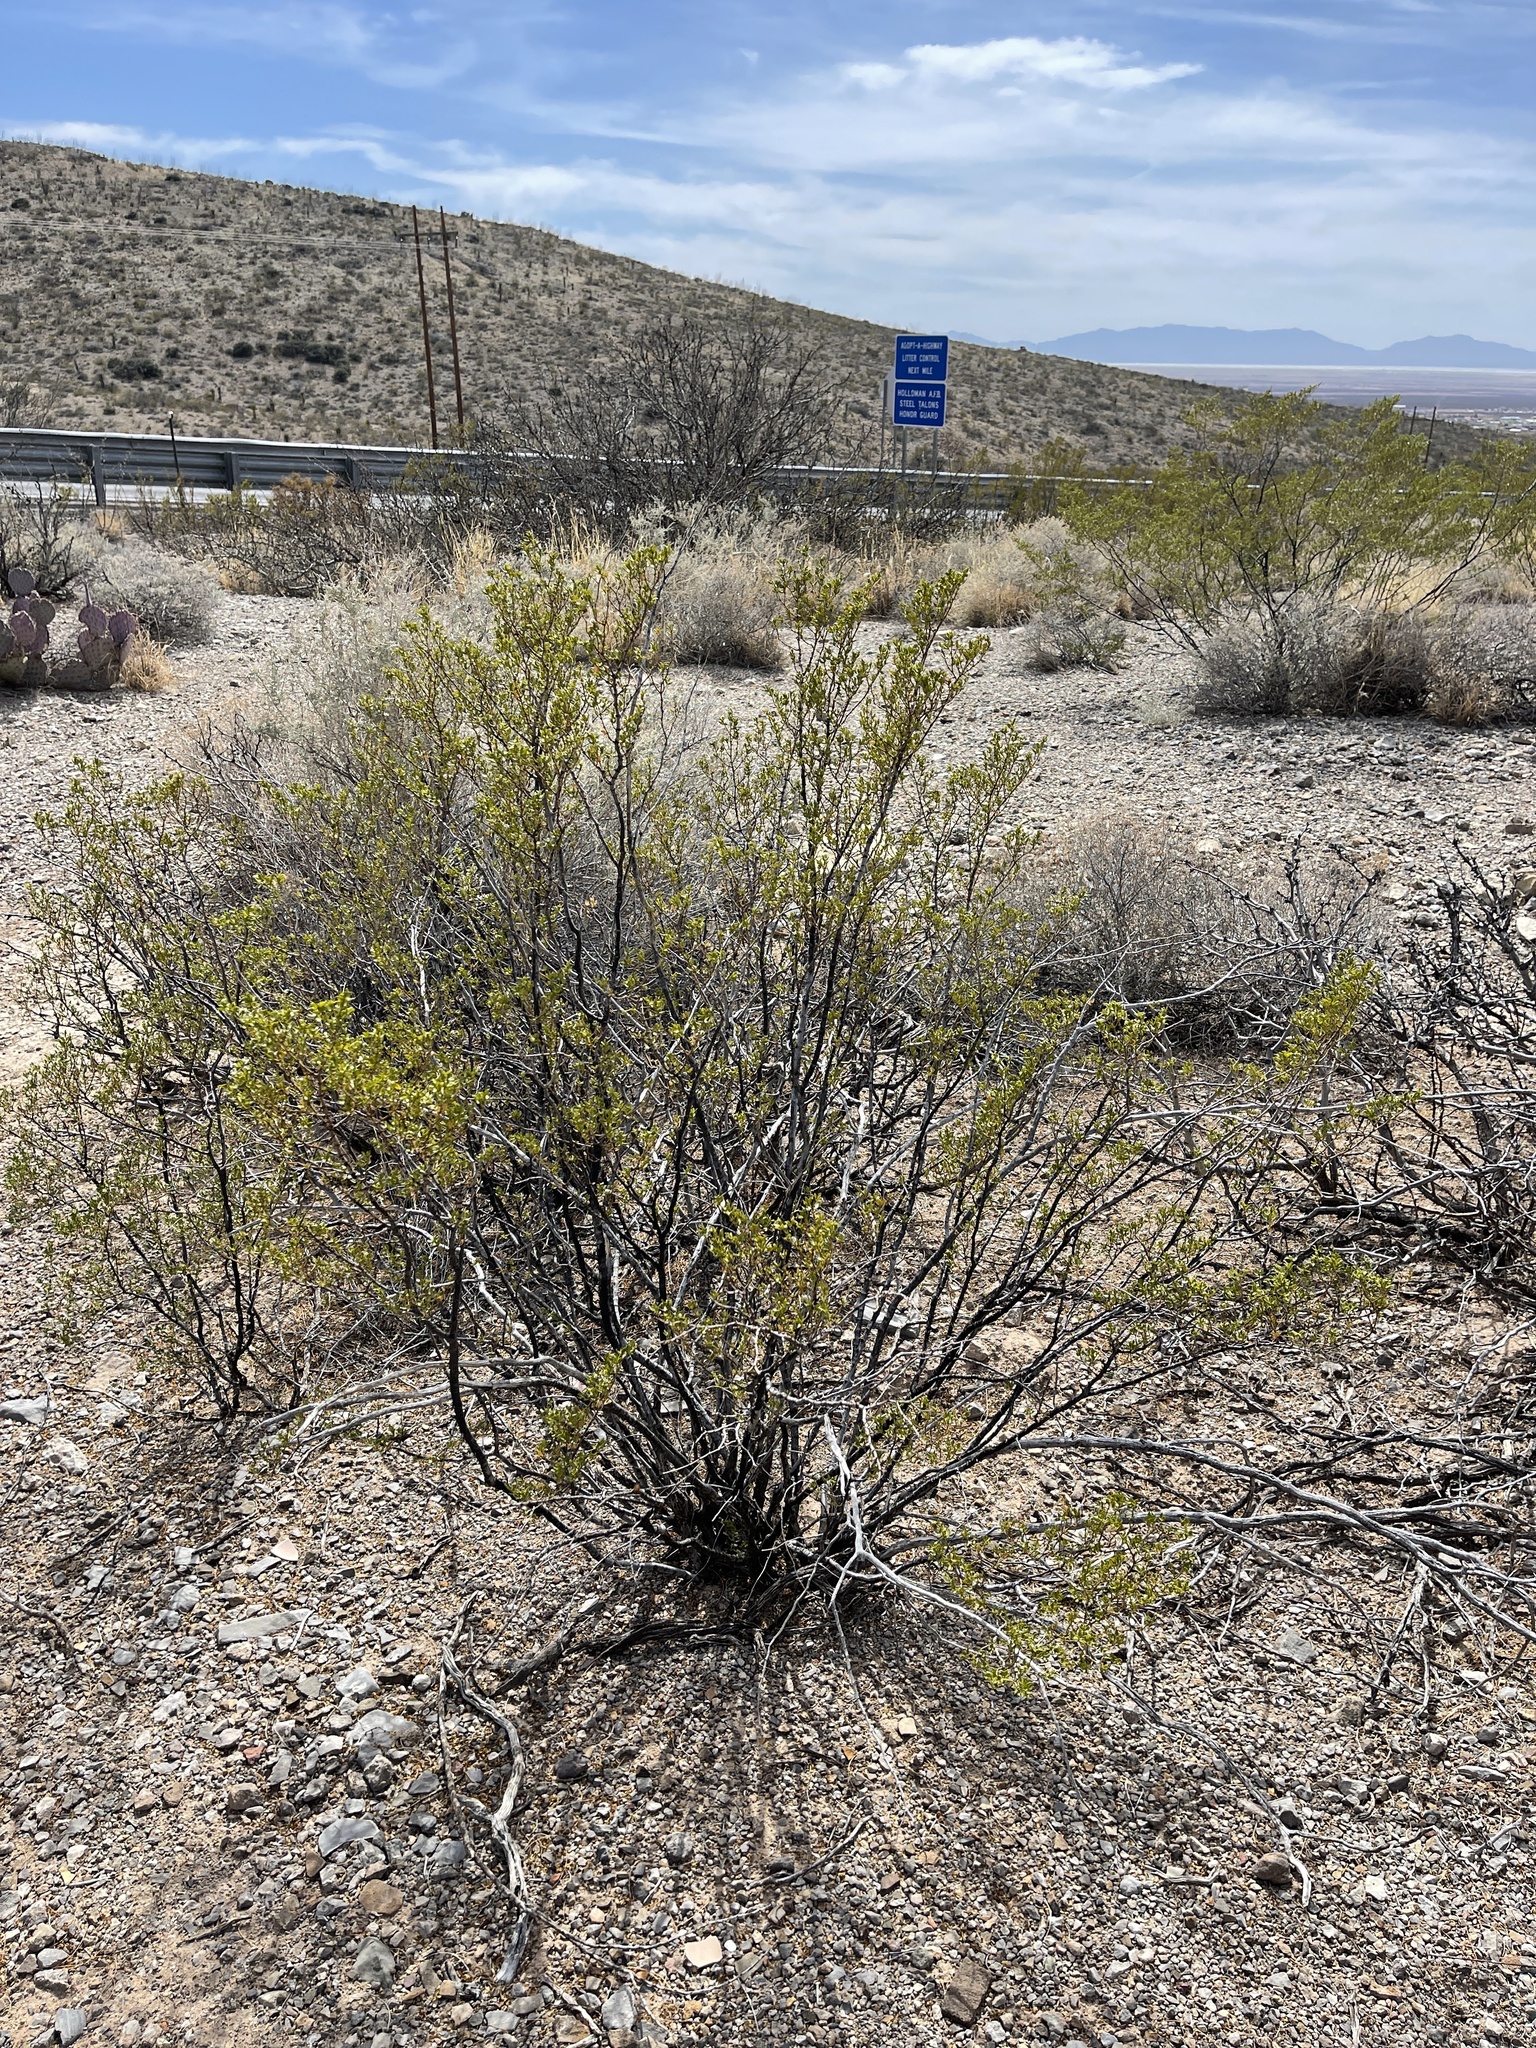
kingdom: Plantae
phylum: Tracheophyta
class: Magnoliopsida
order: Zygophyllales
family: Zygophyllaceae
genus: Larrea
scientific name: Larrea tridentata
